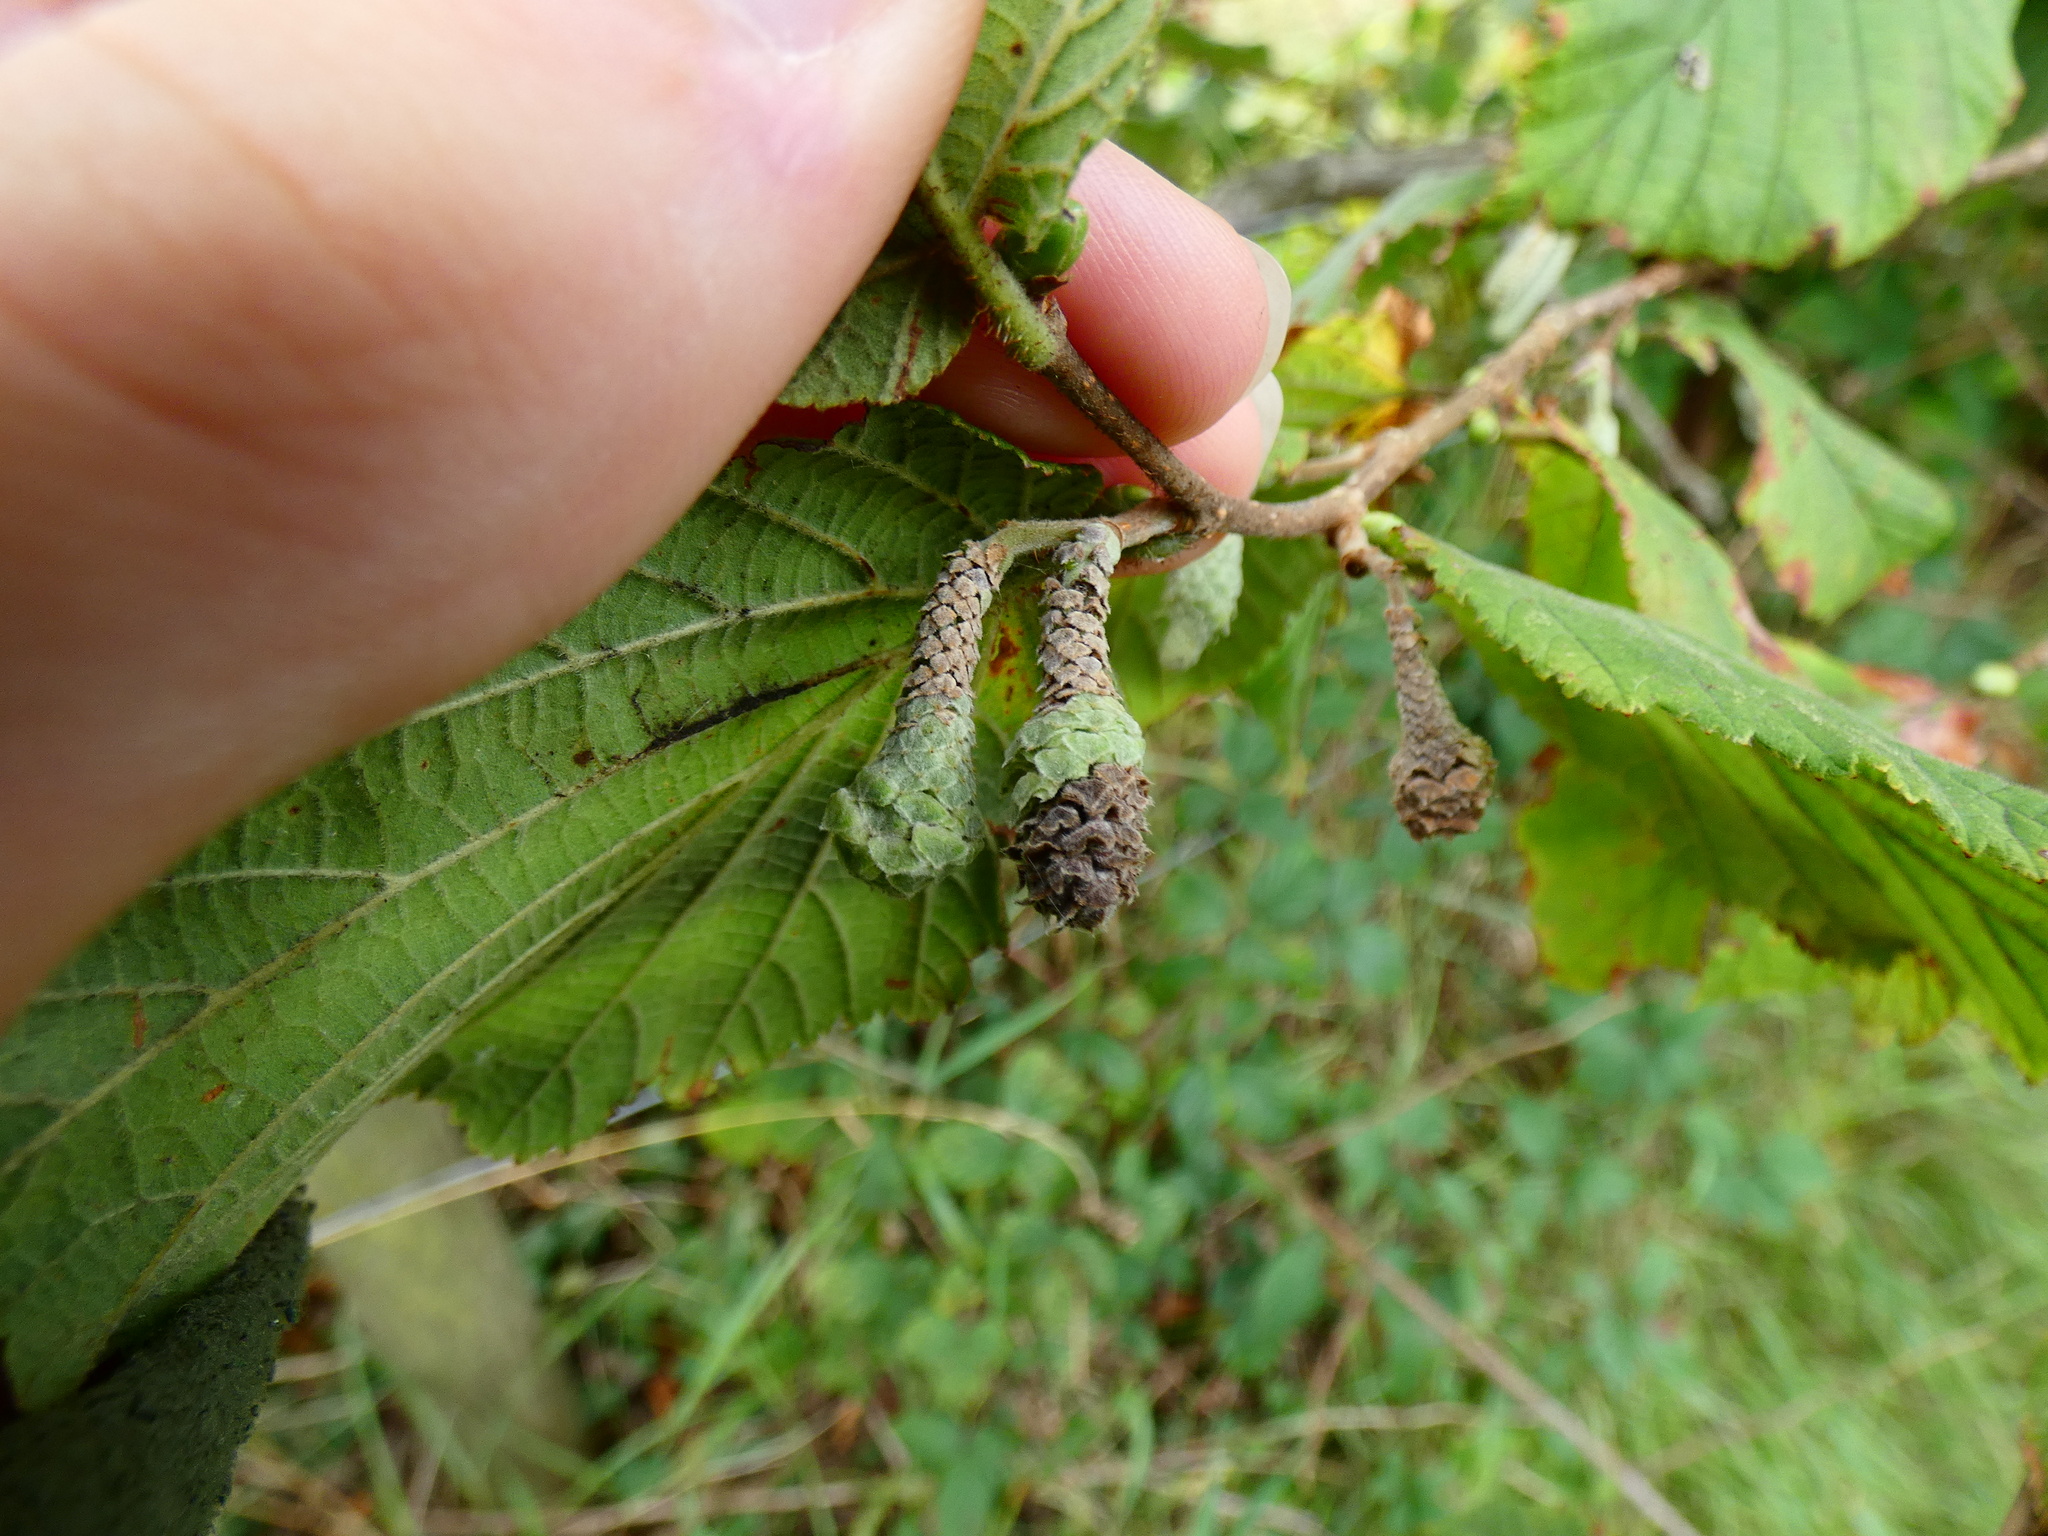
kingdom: Animalia
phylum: Arthropoda
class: Arachnida
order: Trombidiformes
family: Eriophyidae
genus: Phyllocoptruta
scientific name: Phyllocoptruta coryli
